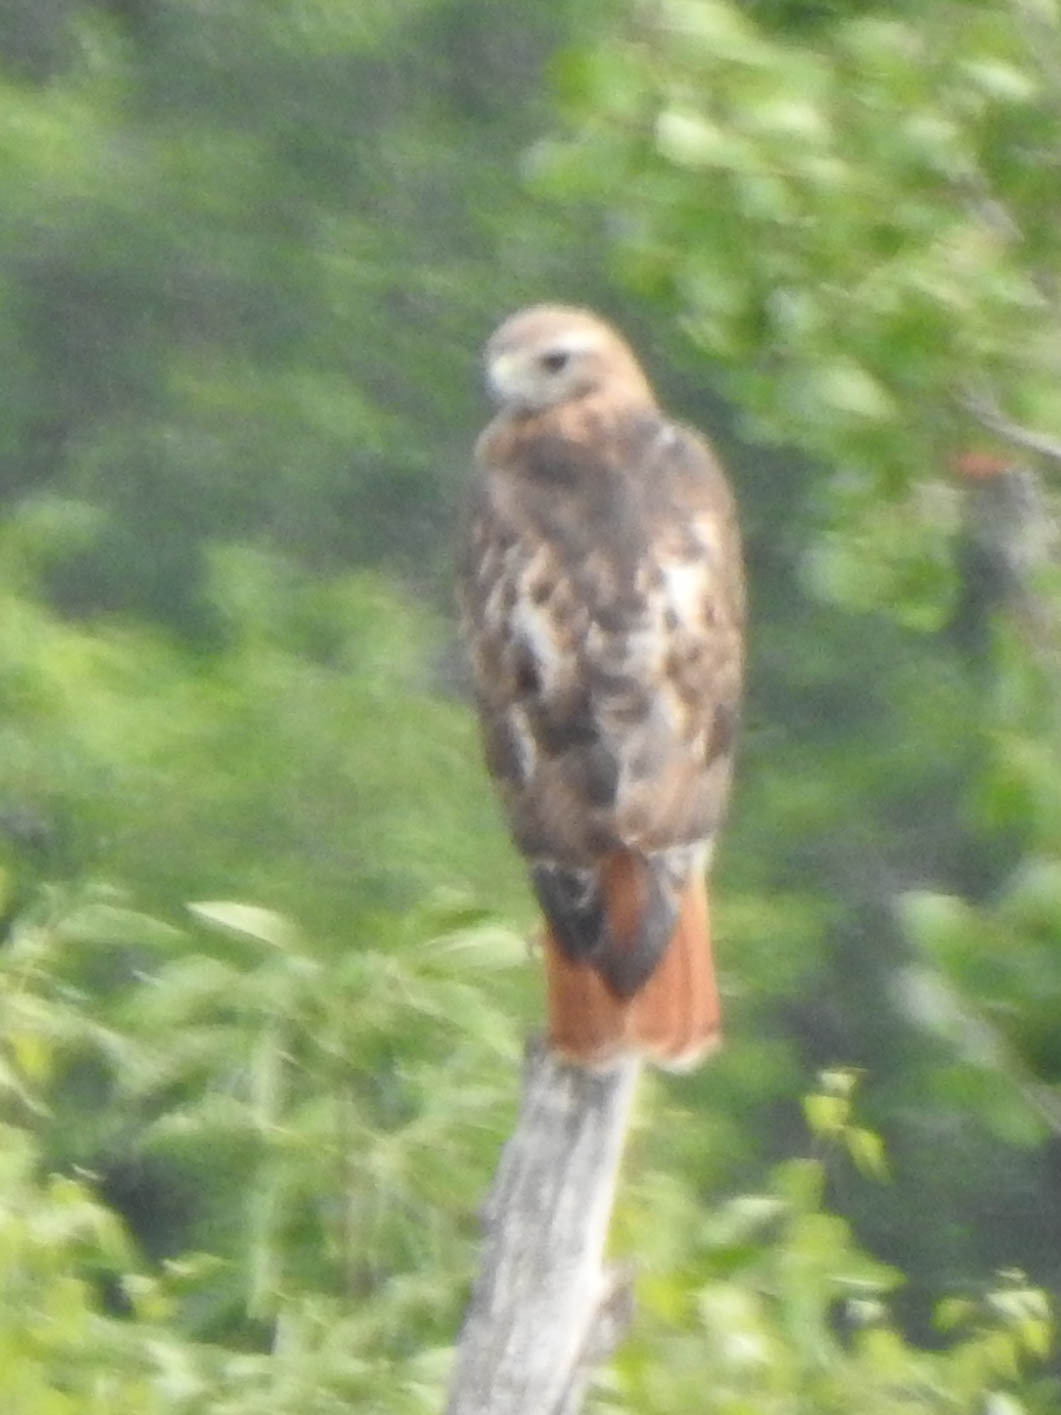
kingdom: Animalia
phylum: Chordata
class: Aves
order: Accipitriformes
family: Accipitridae
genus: Buteo
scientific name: Buteo jamaicensis
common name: Red-tailed hawk
